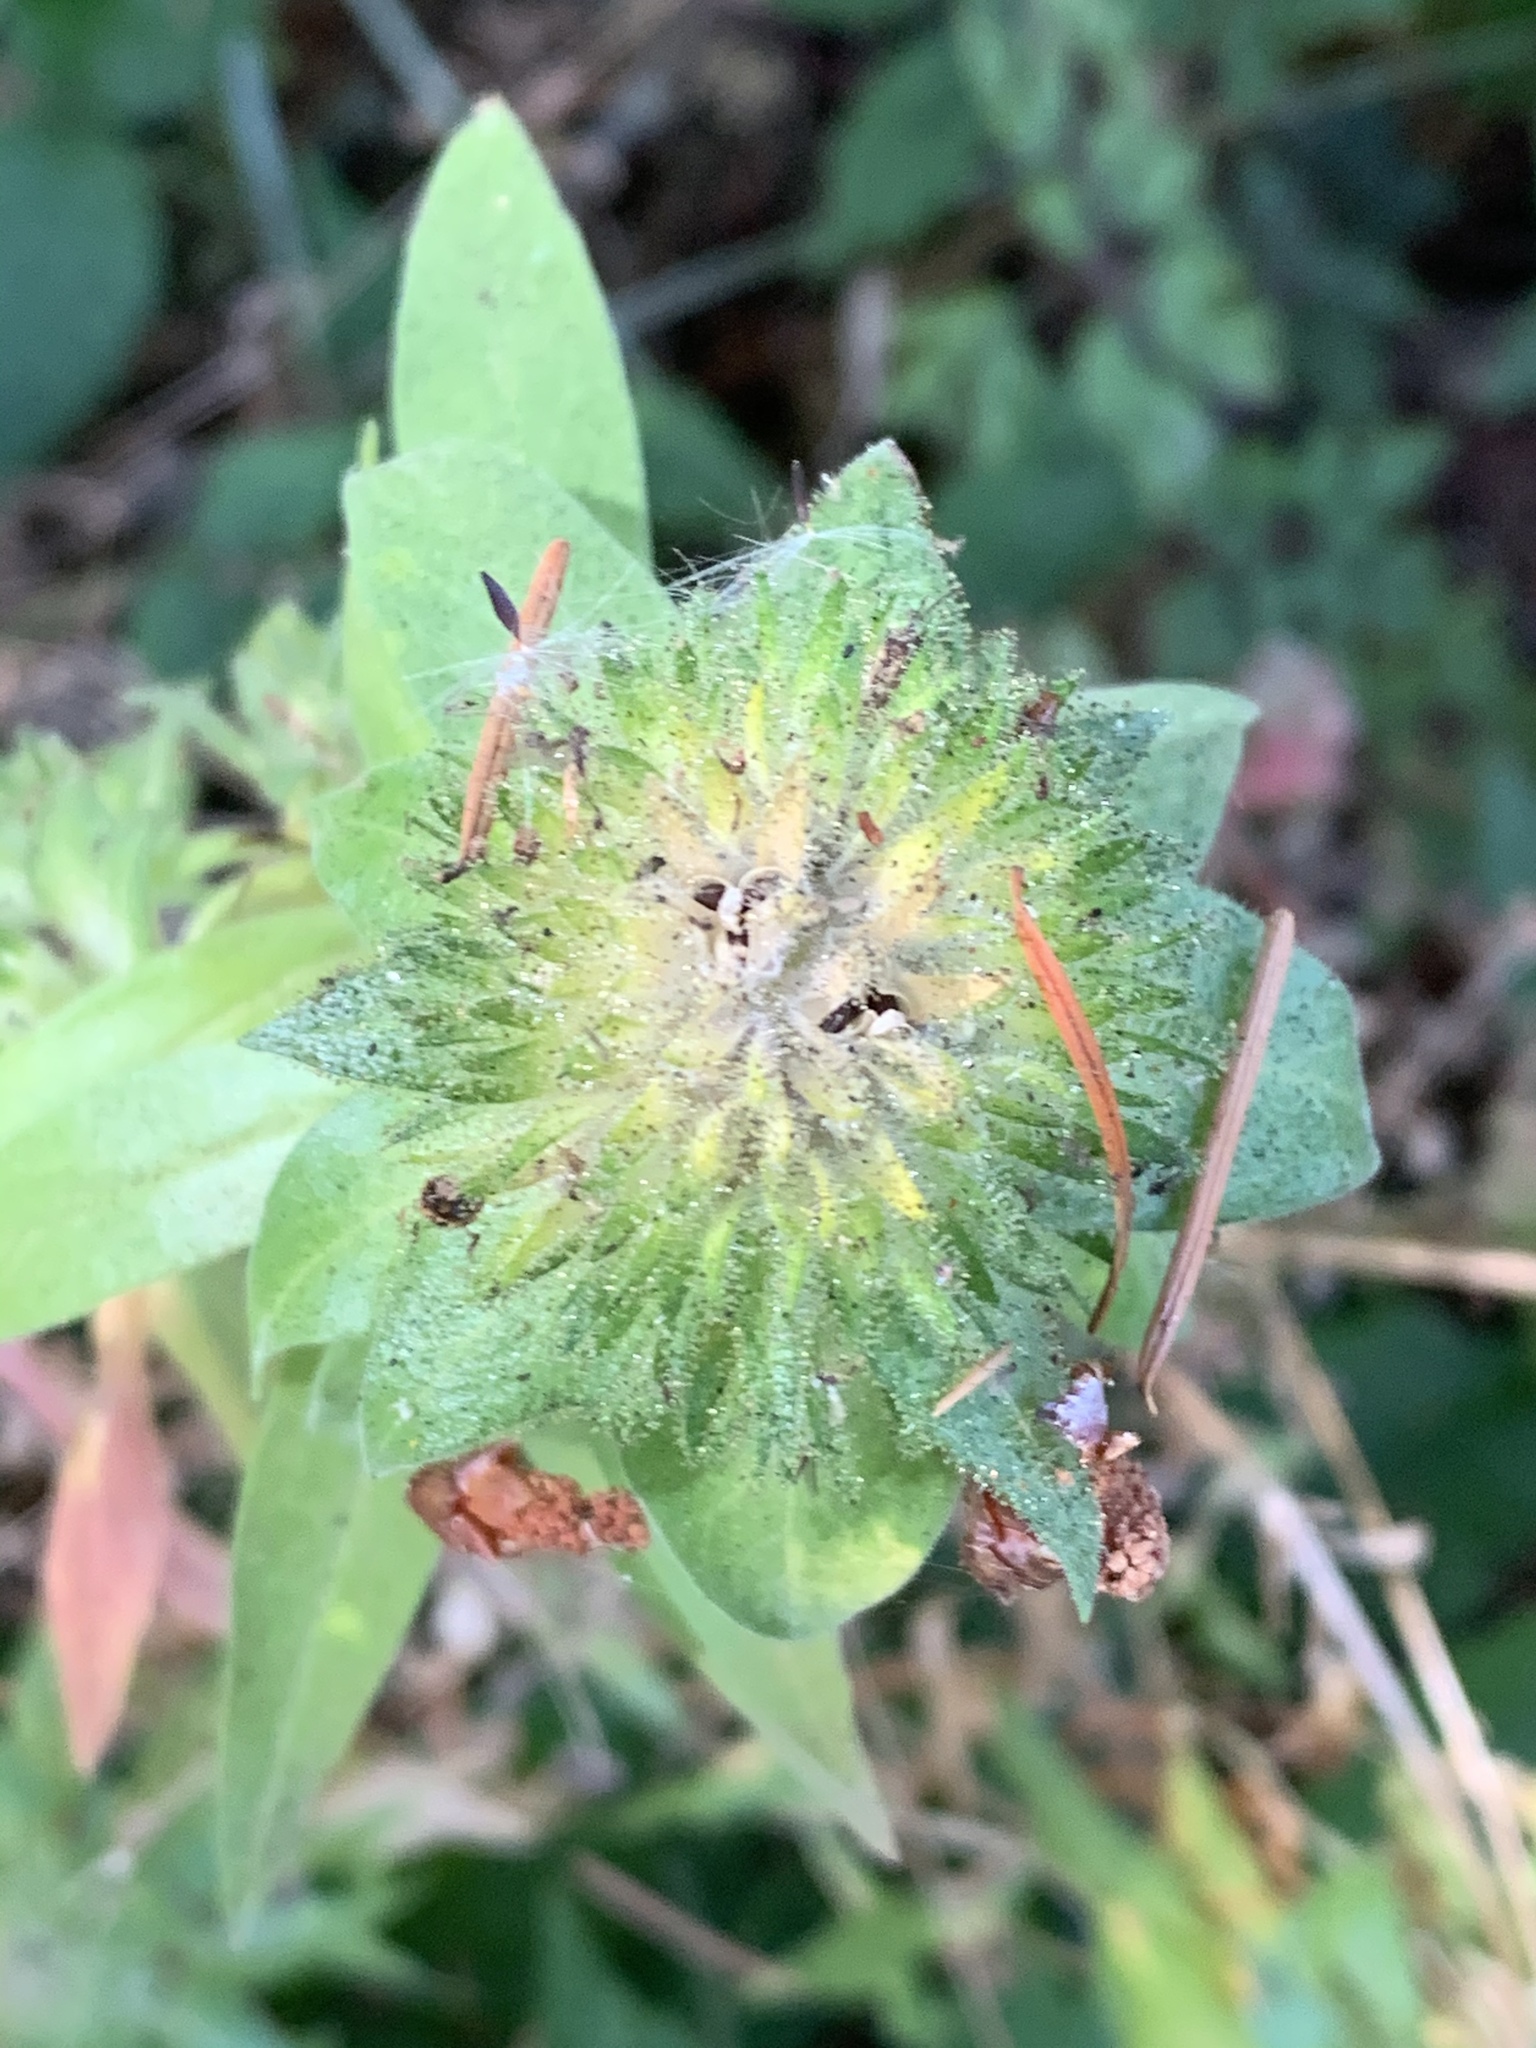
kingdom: Plantae
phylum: Tracheophyta
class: Magnoliopsida
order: Ericales
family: Polemoniaceae
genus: Collomia
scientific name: Collomia grandiflora
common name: California strawflower
